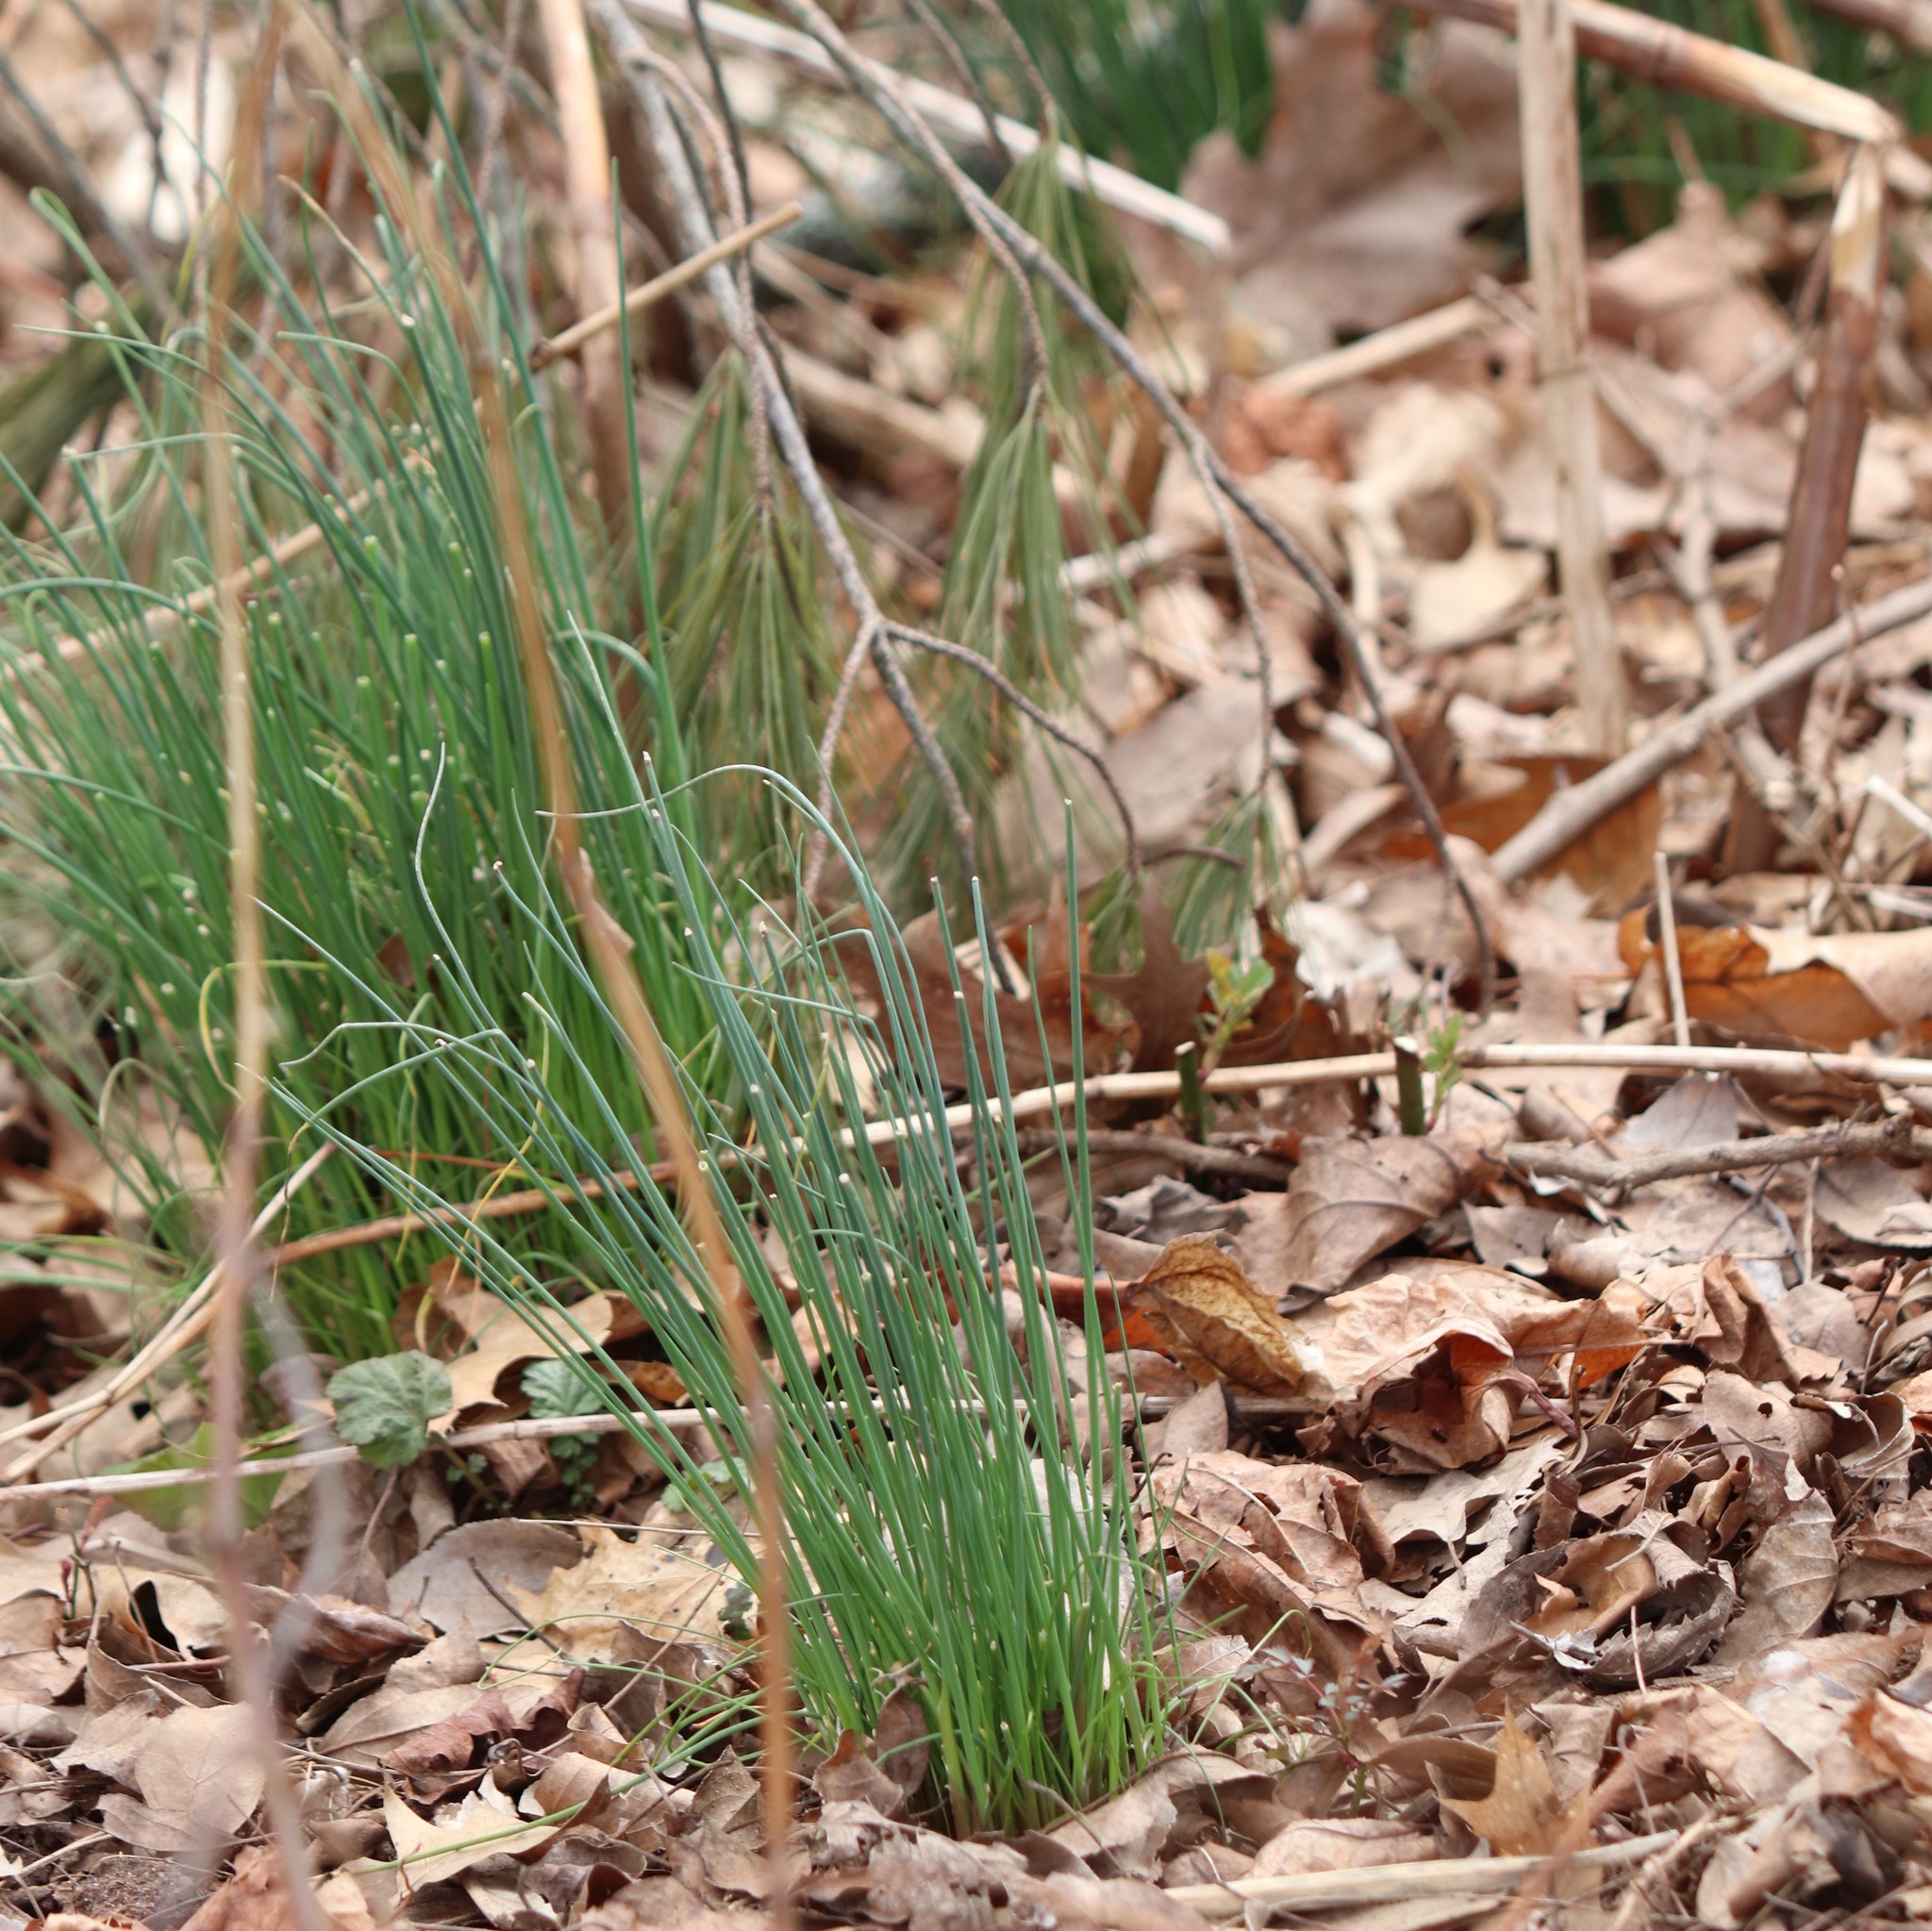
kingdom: Plantae
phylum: Tracheophyta
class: Liliopsida
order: Asparagales
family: Amaryllidaceae
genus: Allium
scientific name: Allium vineale
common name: Crow garlic
